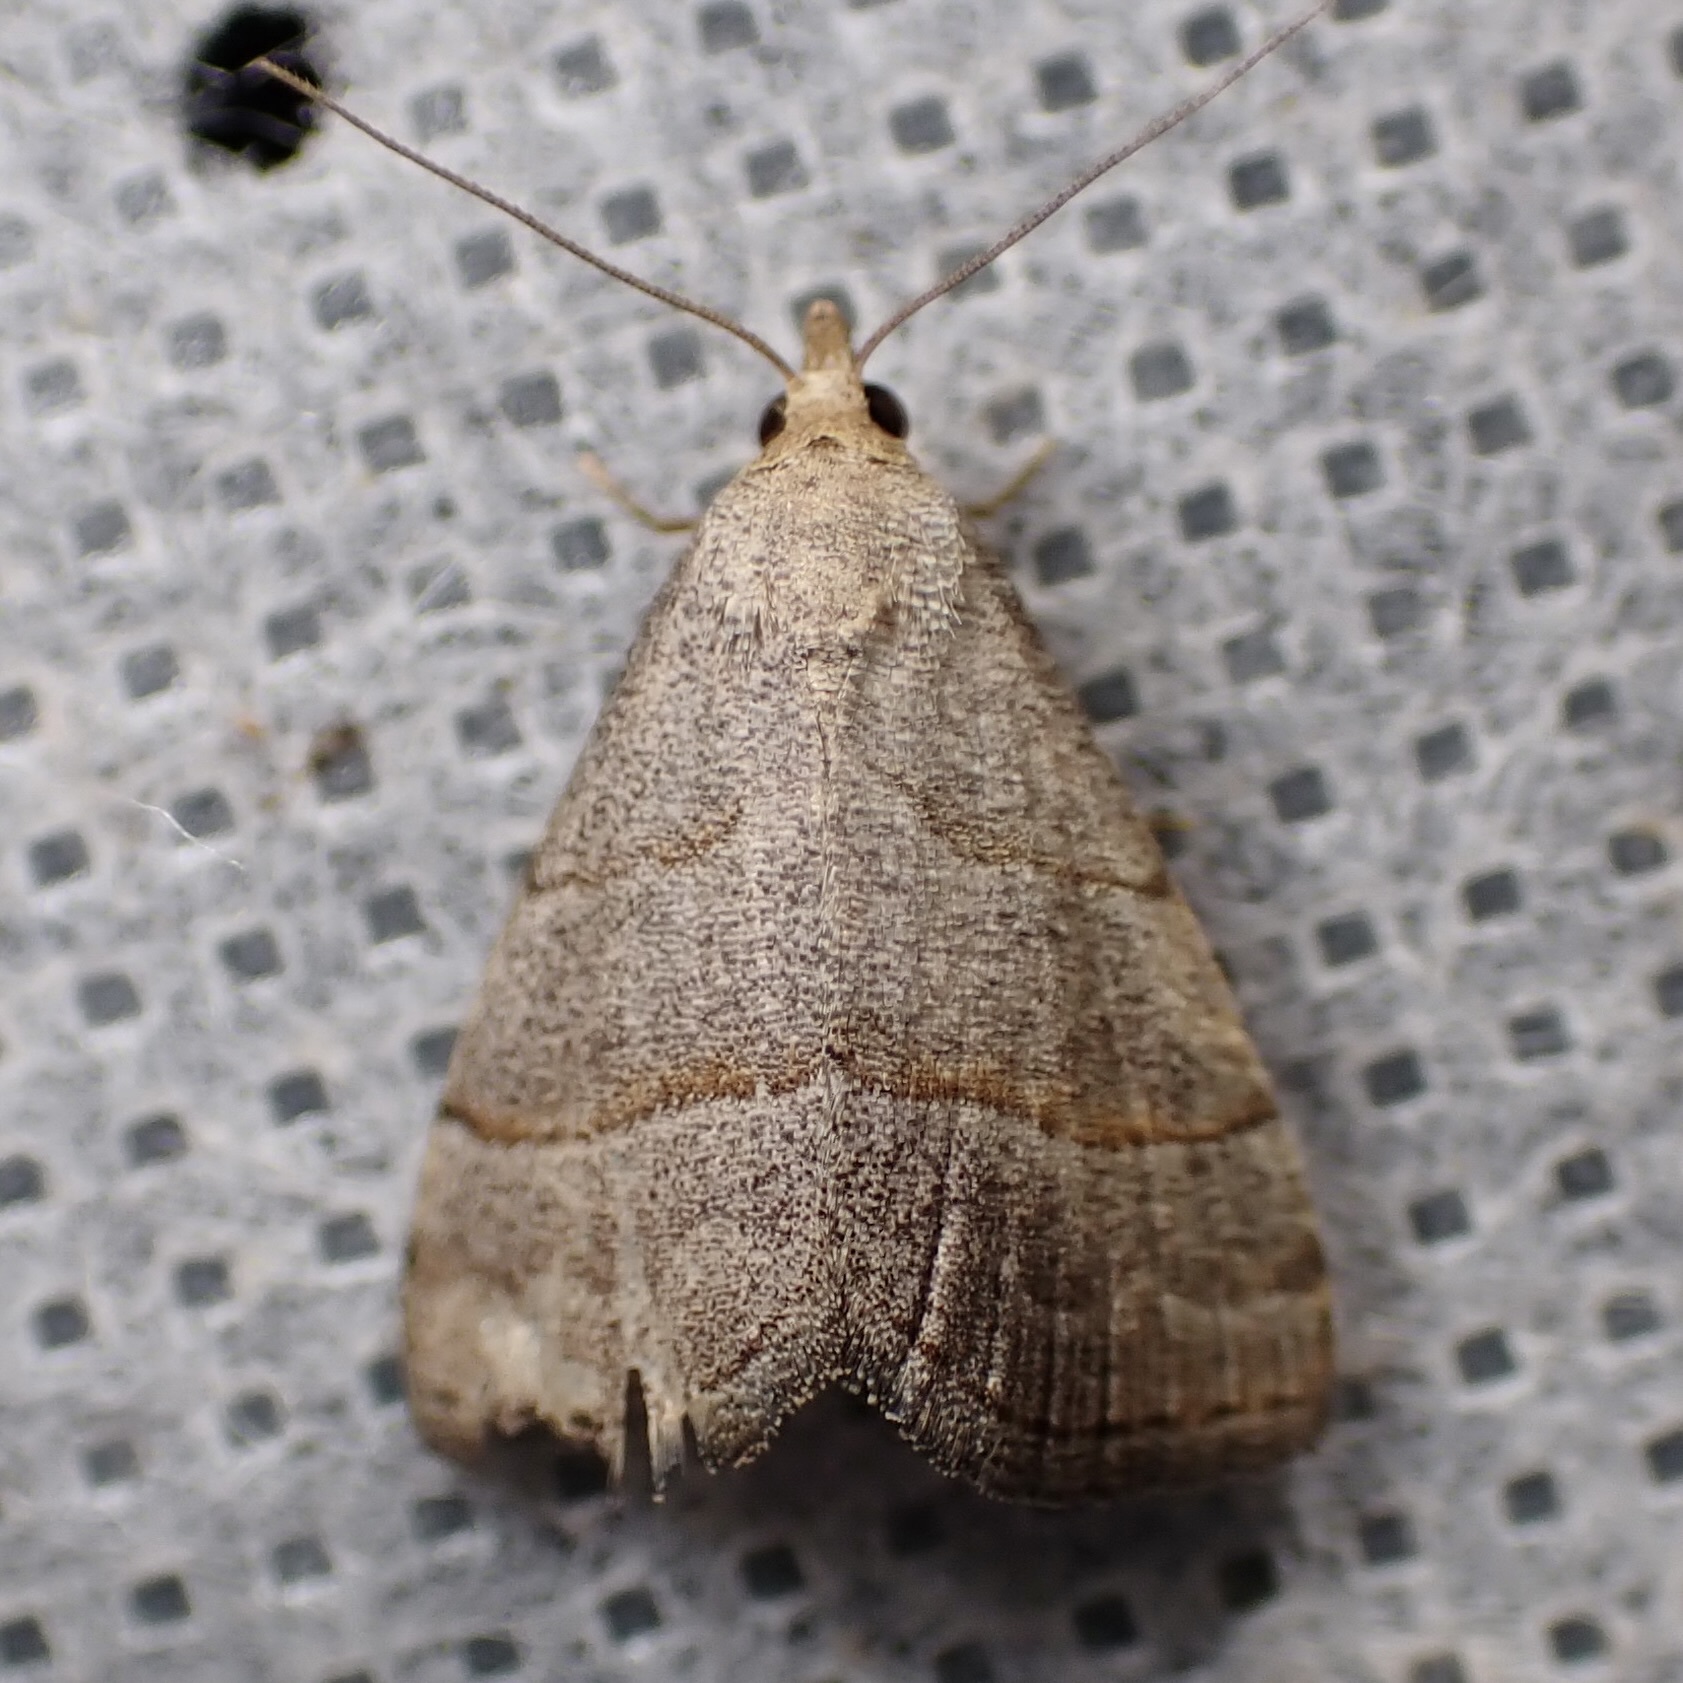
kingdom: Animalia
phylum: Arthropoda
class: Insecta
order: Lepidoptera
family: Erebidae
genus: Zelicodes
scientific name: Zelicodes linearis
